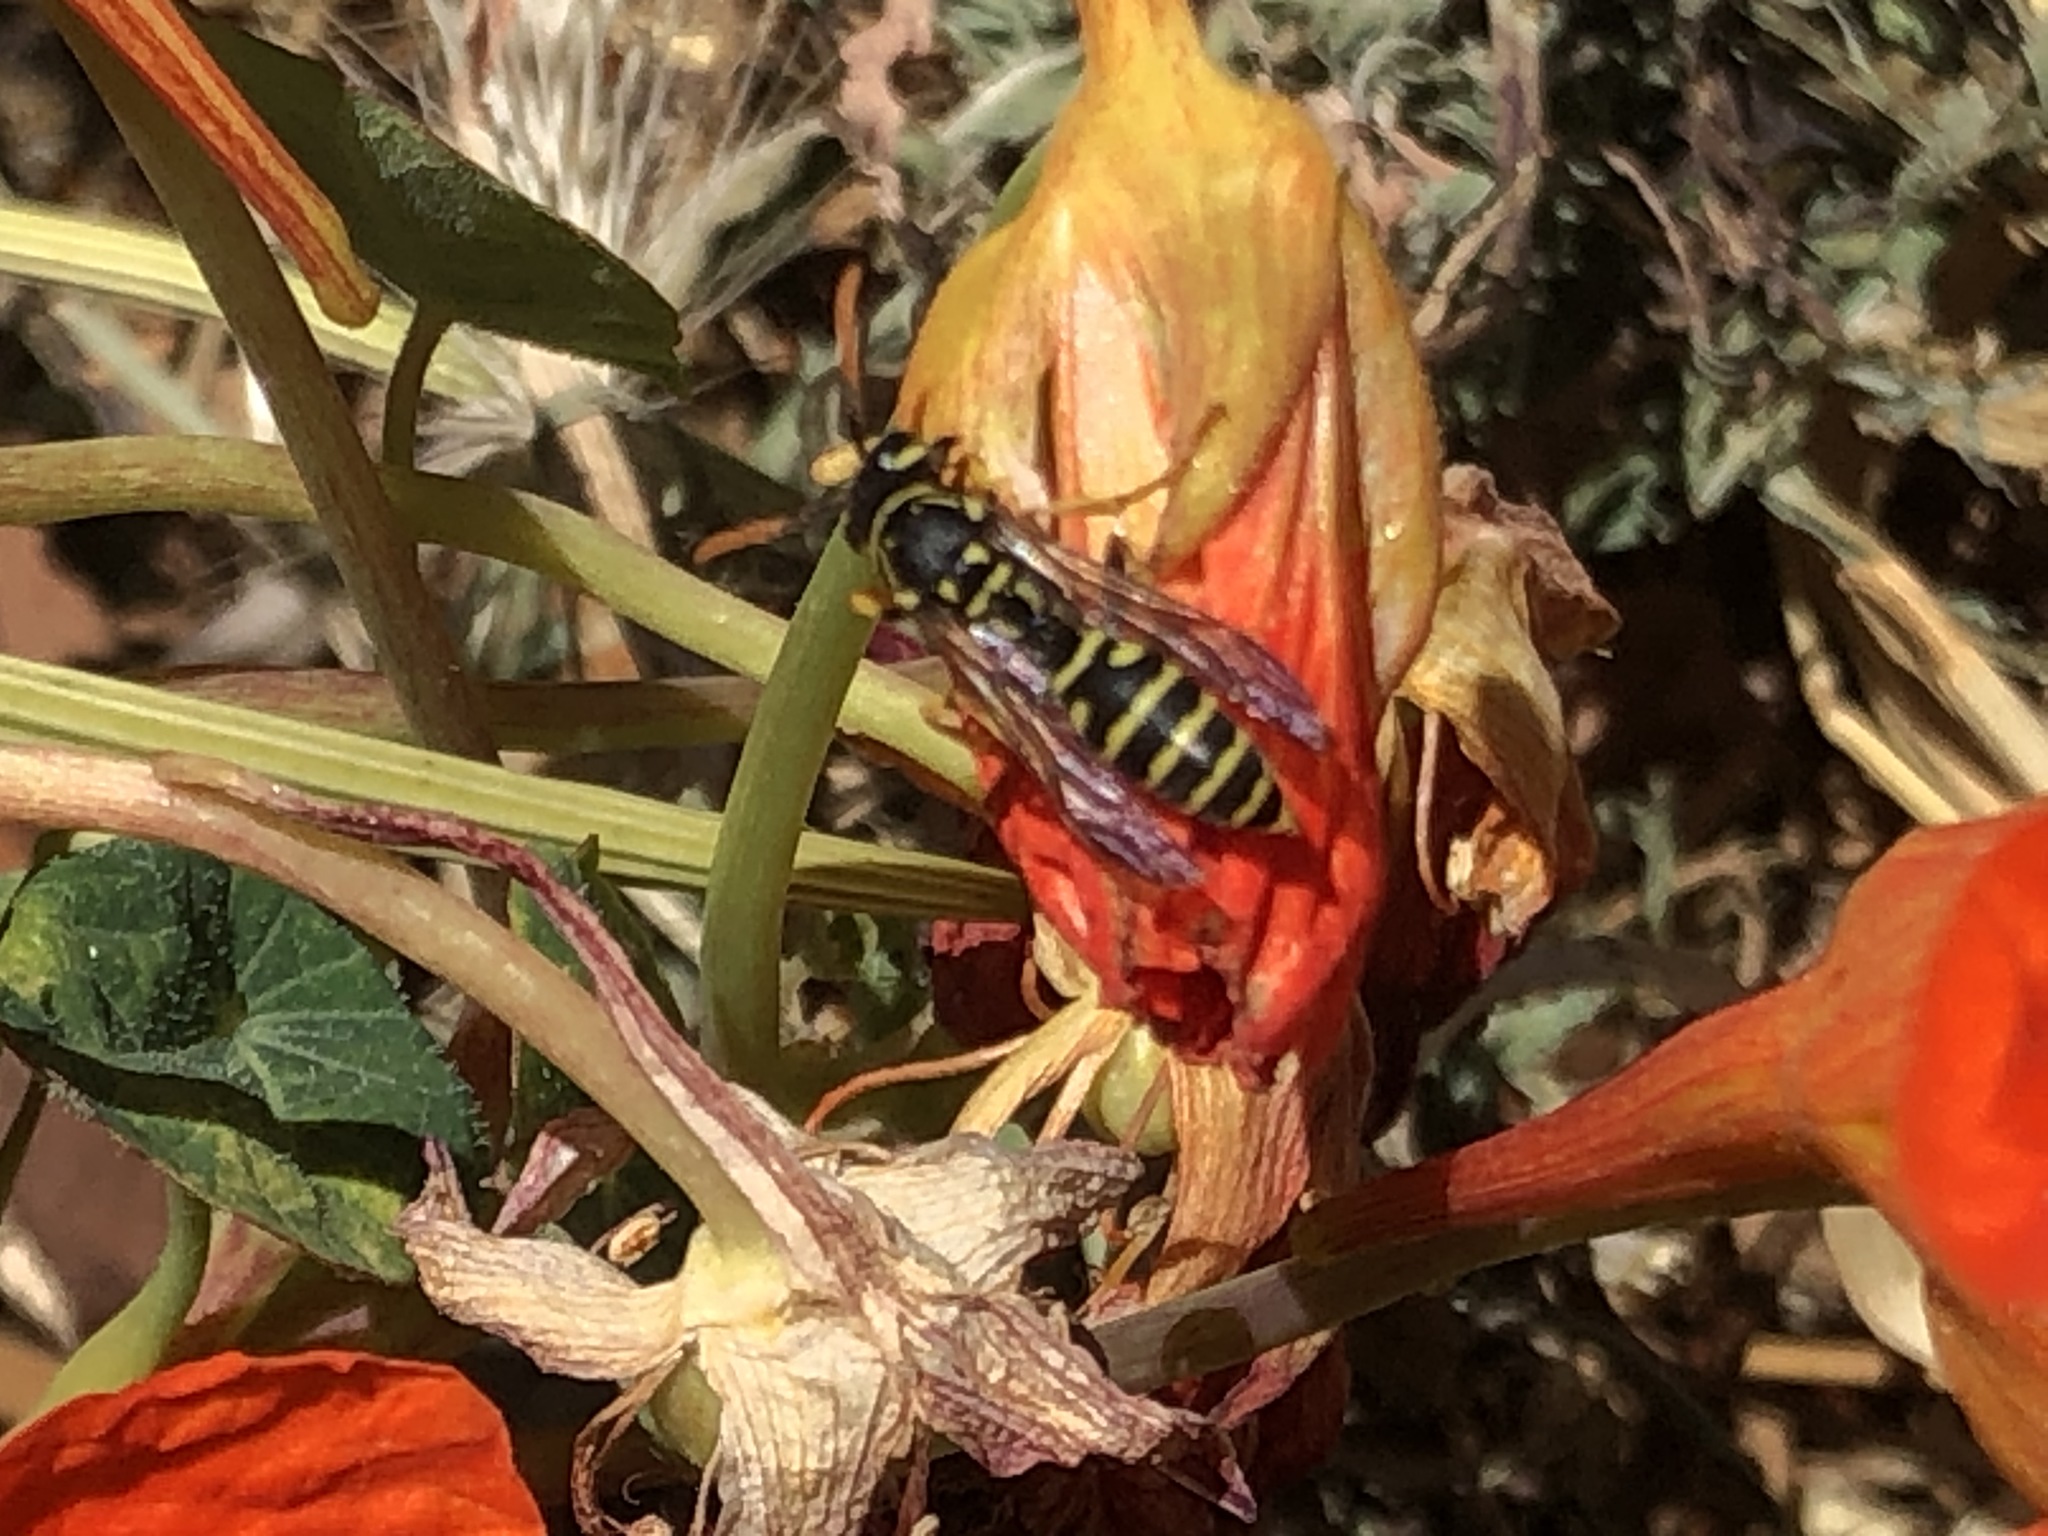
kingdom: Animalia
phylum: Arthropoda
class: Insecta
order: Hymenoptera
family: Eumenidae
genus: Polistes
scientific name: Polistes dominula
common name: Paper wasp
